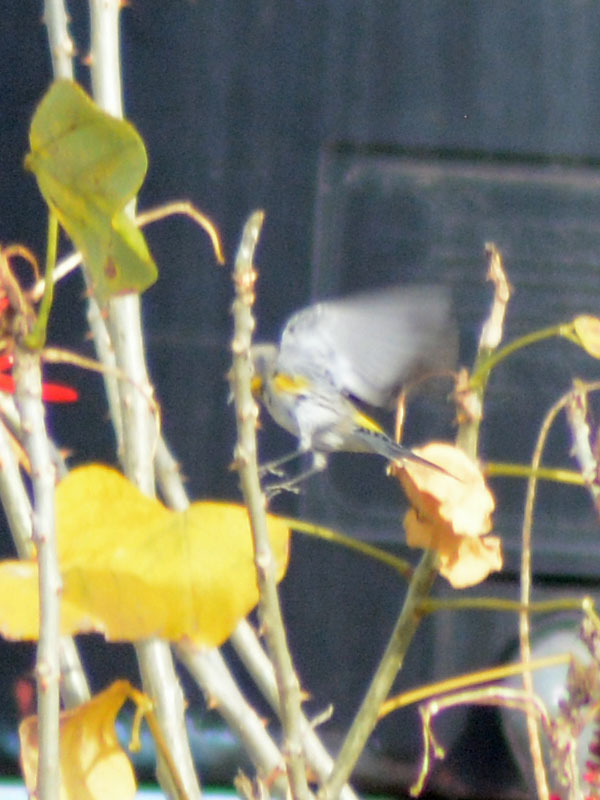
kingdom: Animalia
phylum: Chordata
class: Aves
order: Passeriformes
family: Parulidae
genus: Setophaga
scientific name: Setophaga auduboni
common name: Audubon's warbler
